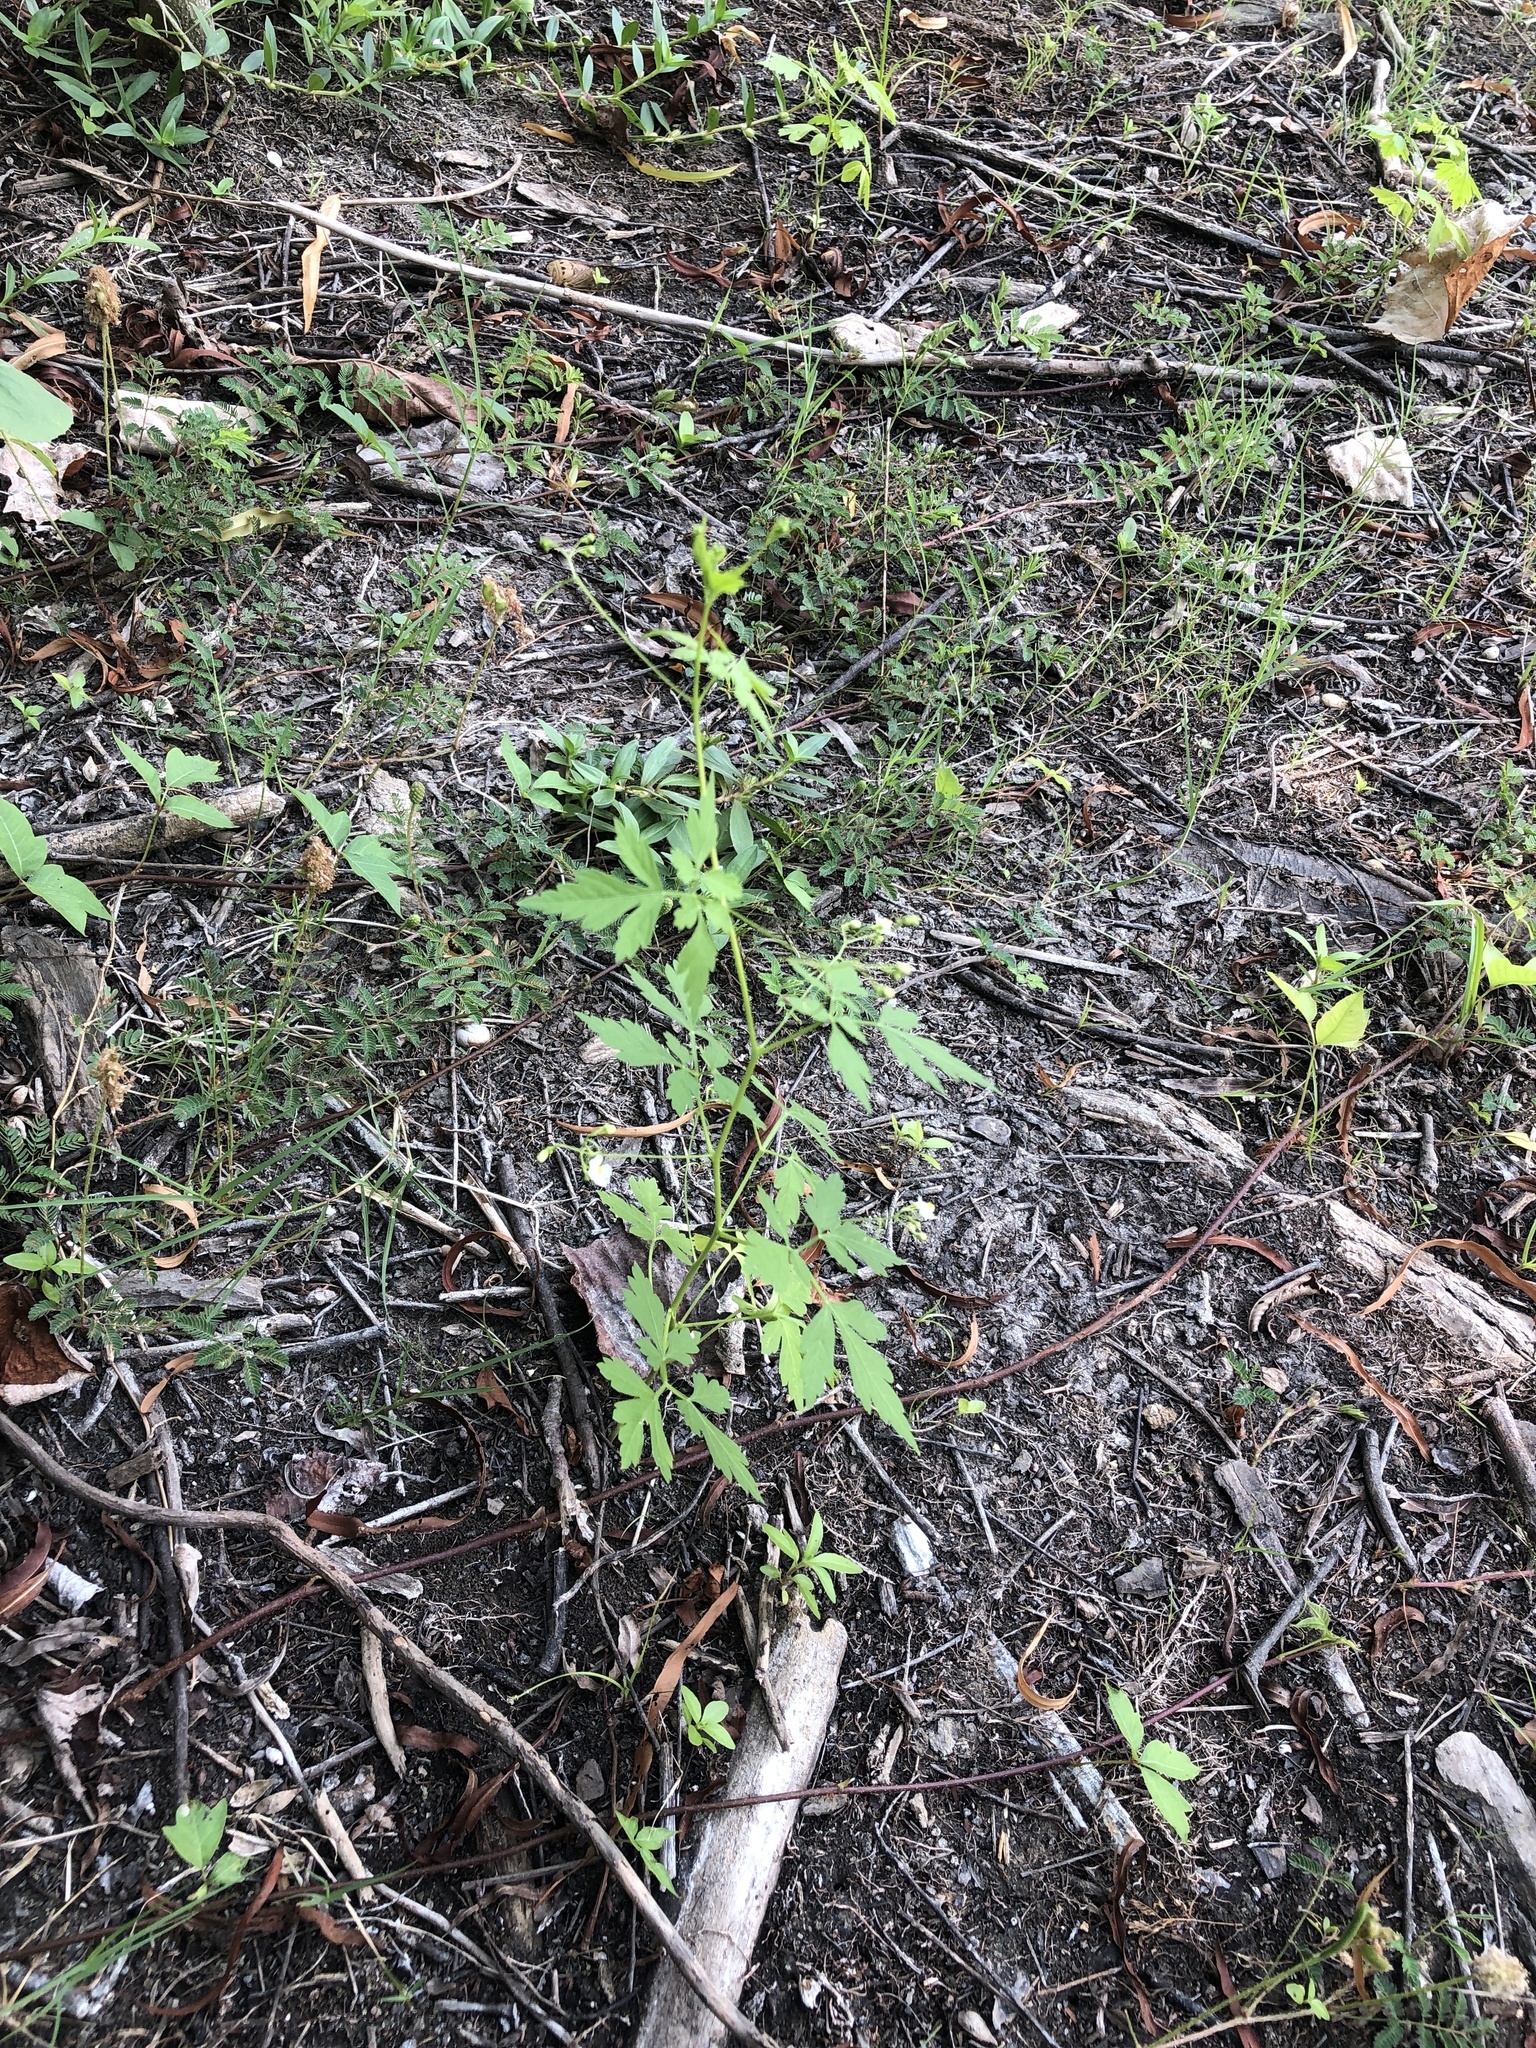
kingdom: Plantae
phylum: Tracheophyta
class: Magnoliopsida
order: Sapindales
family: Sapindaceae
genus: Cardiospermum
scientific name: Cardiospermum halicacabum
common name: Balloon vine
